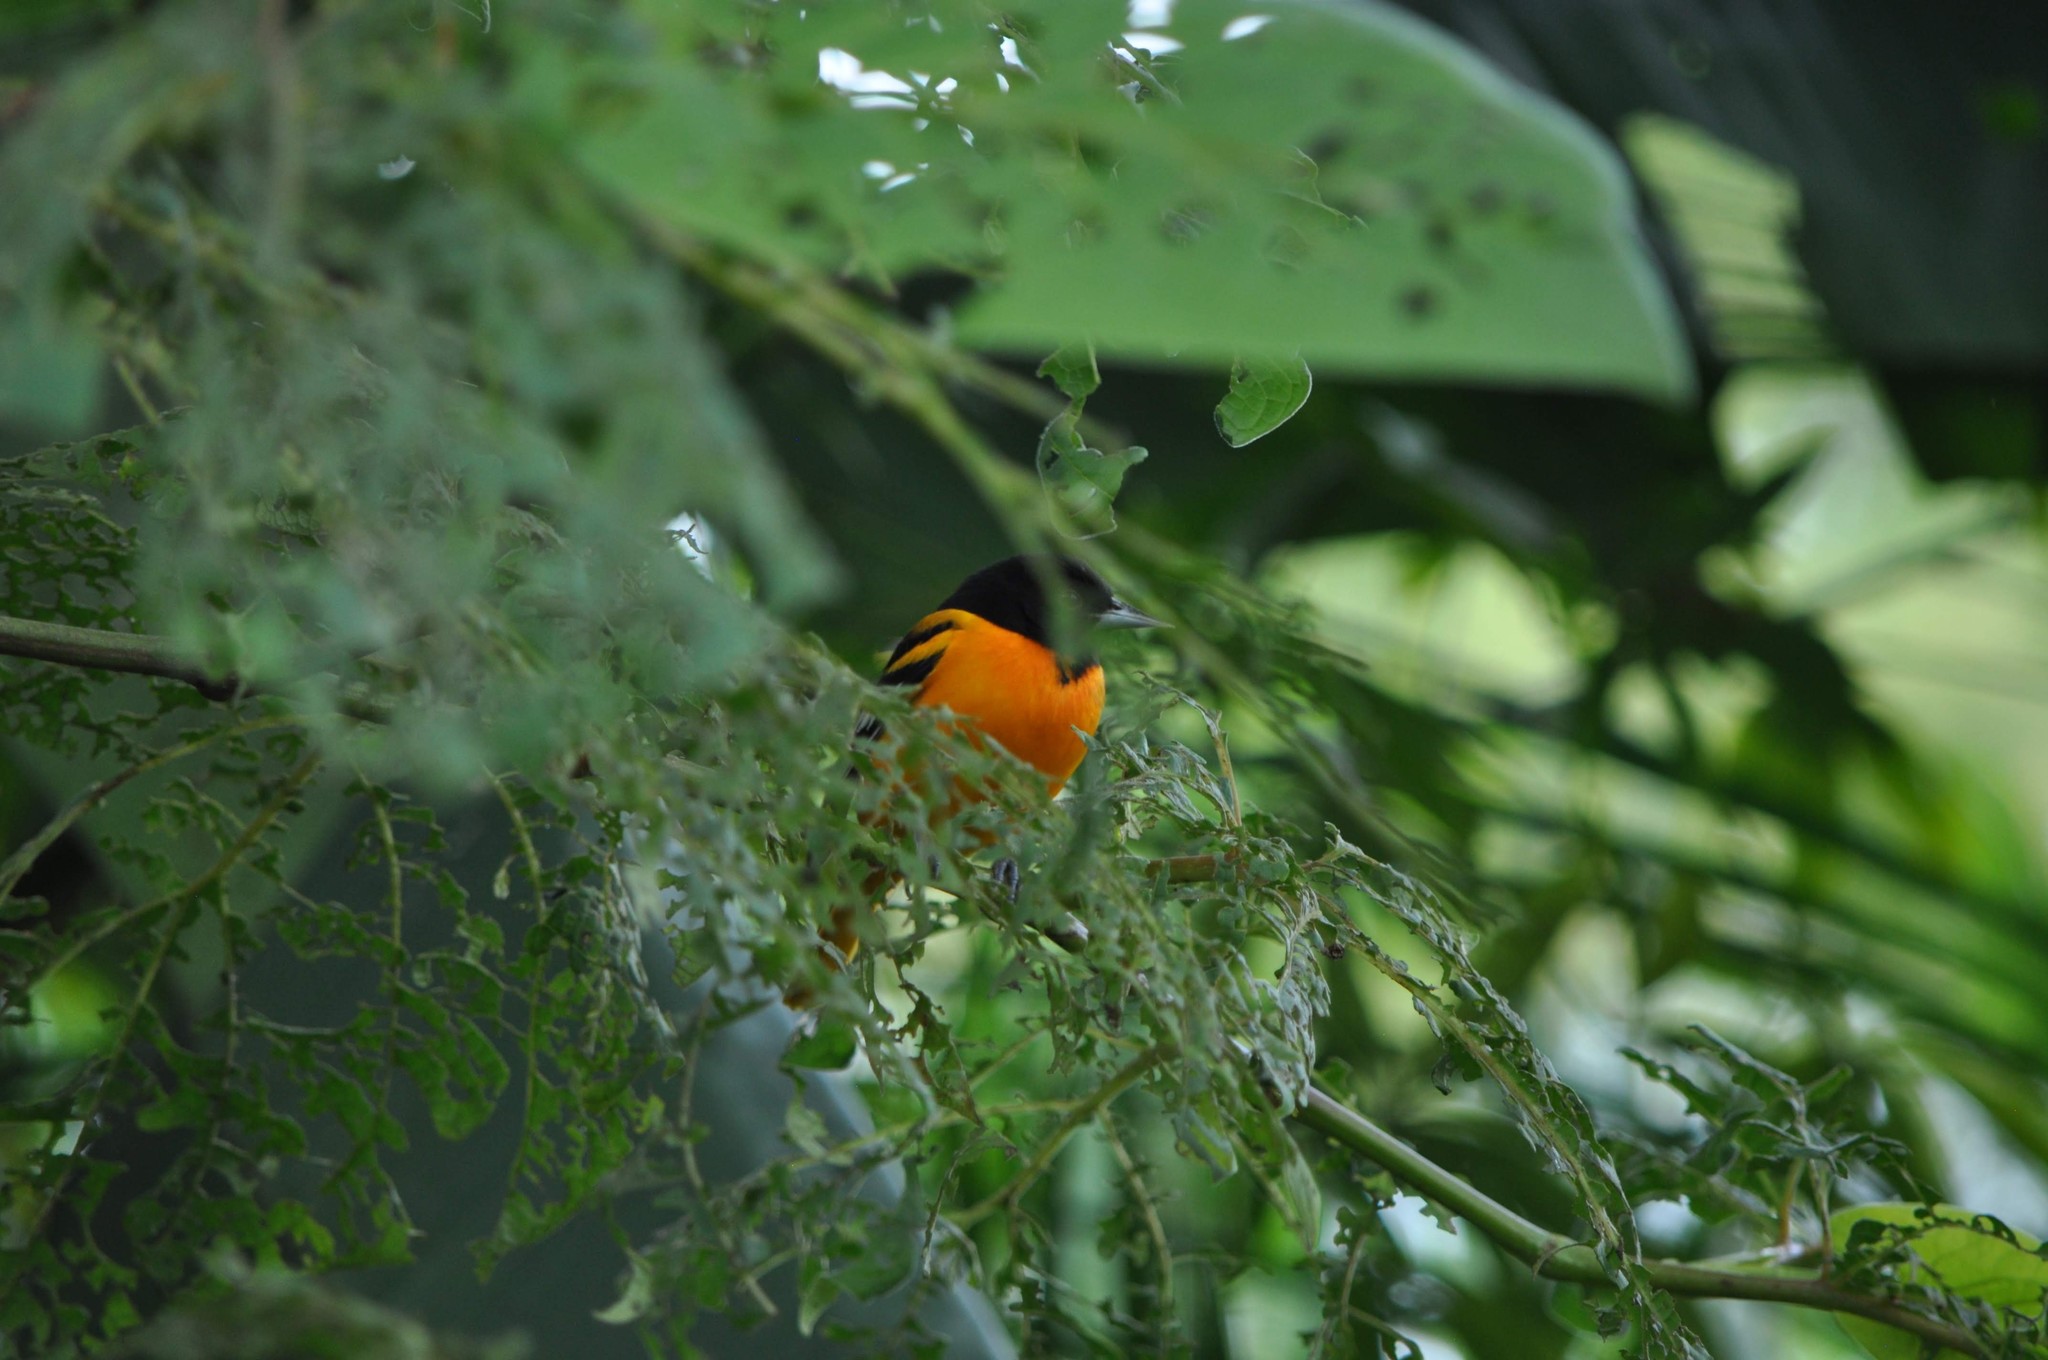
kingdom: Animalia
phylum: Chordata
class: Aves
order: Passeriformes
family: Icteridae
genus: Icterus
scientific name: Icterus galbula
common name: Baltimore oriole
